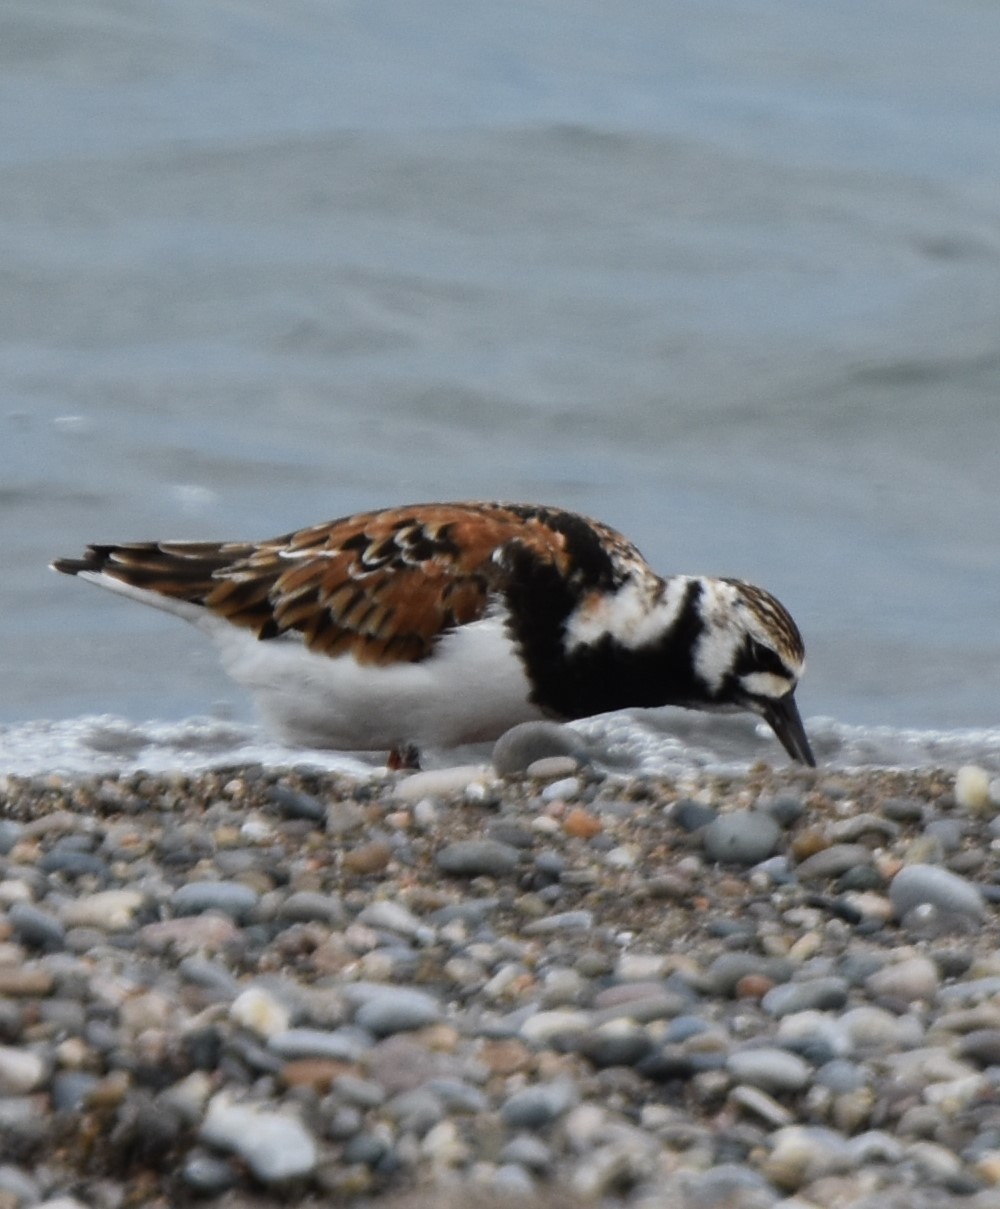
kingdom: Animalia
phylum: Chordata
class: Aves
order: Charadriiformes
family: Scolopacidae
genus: Arenaria
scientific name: Arenaria interpres
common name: Ruddy turnstone
